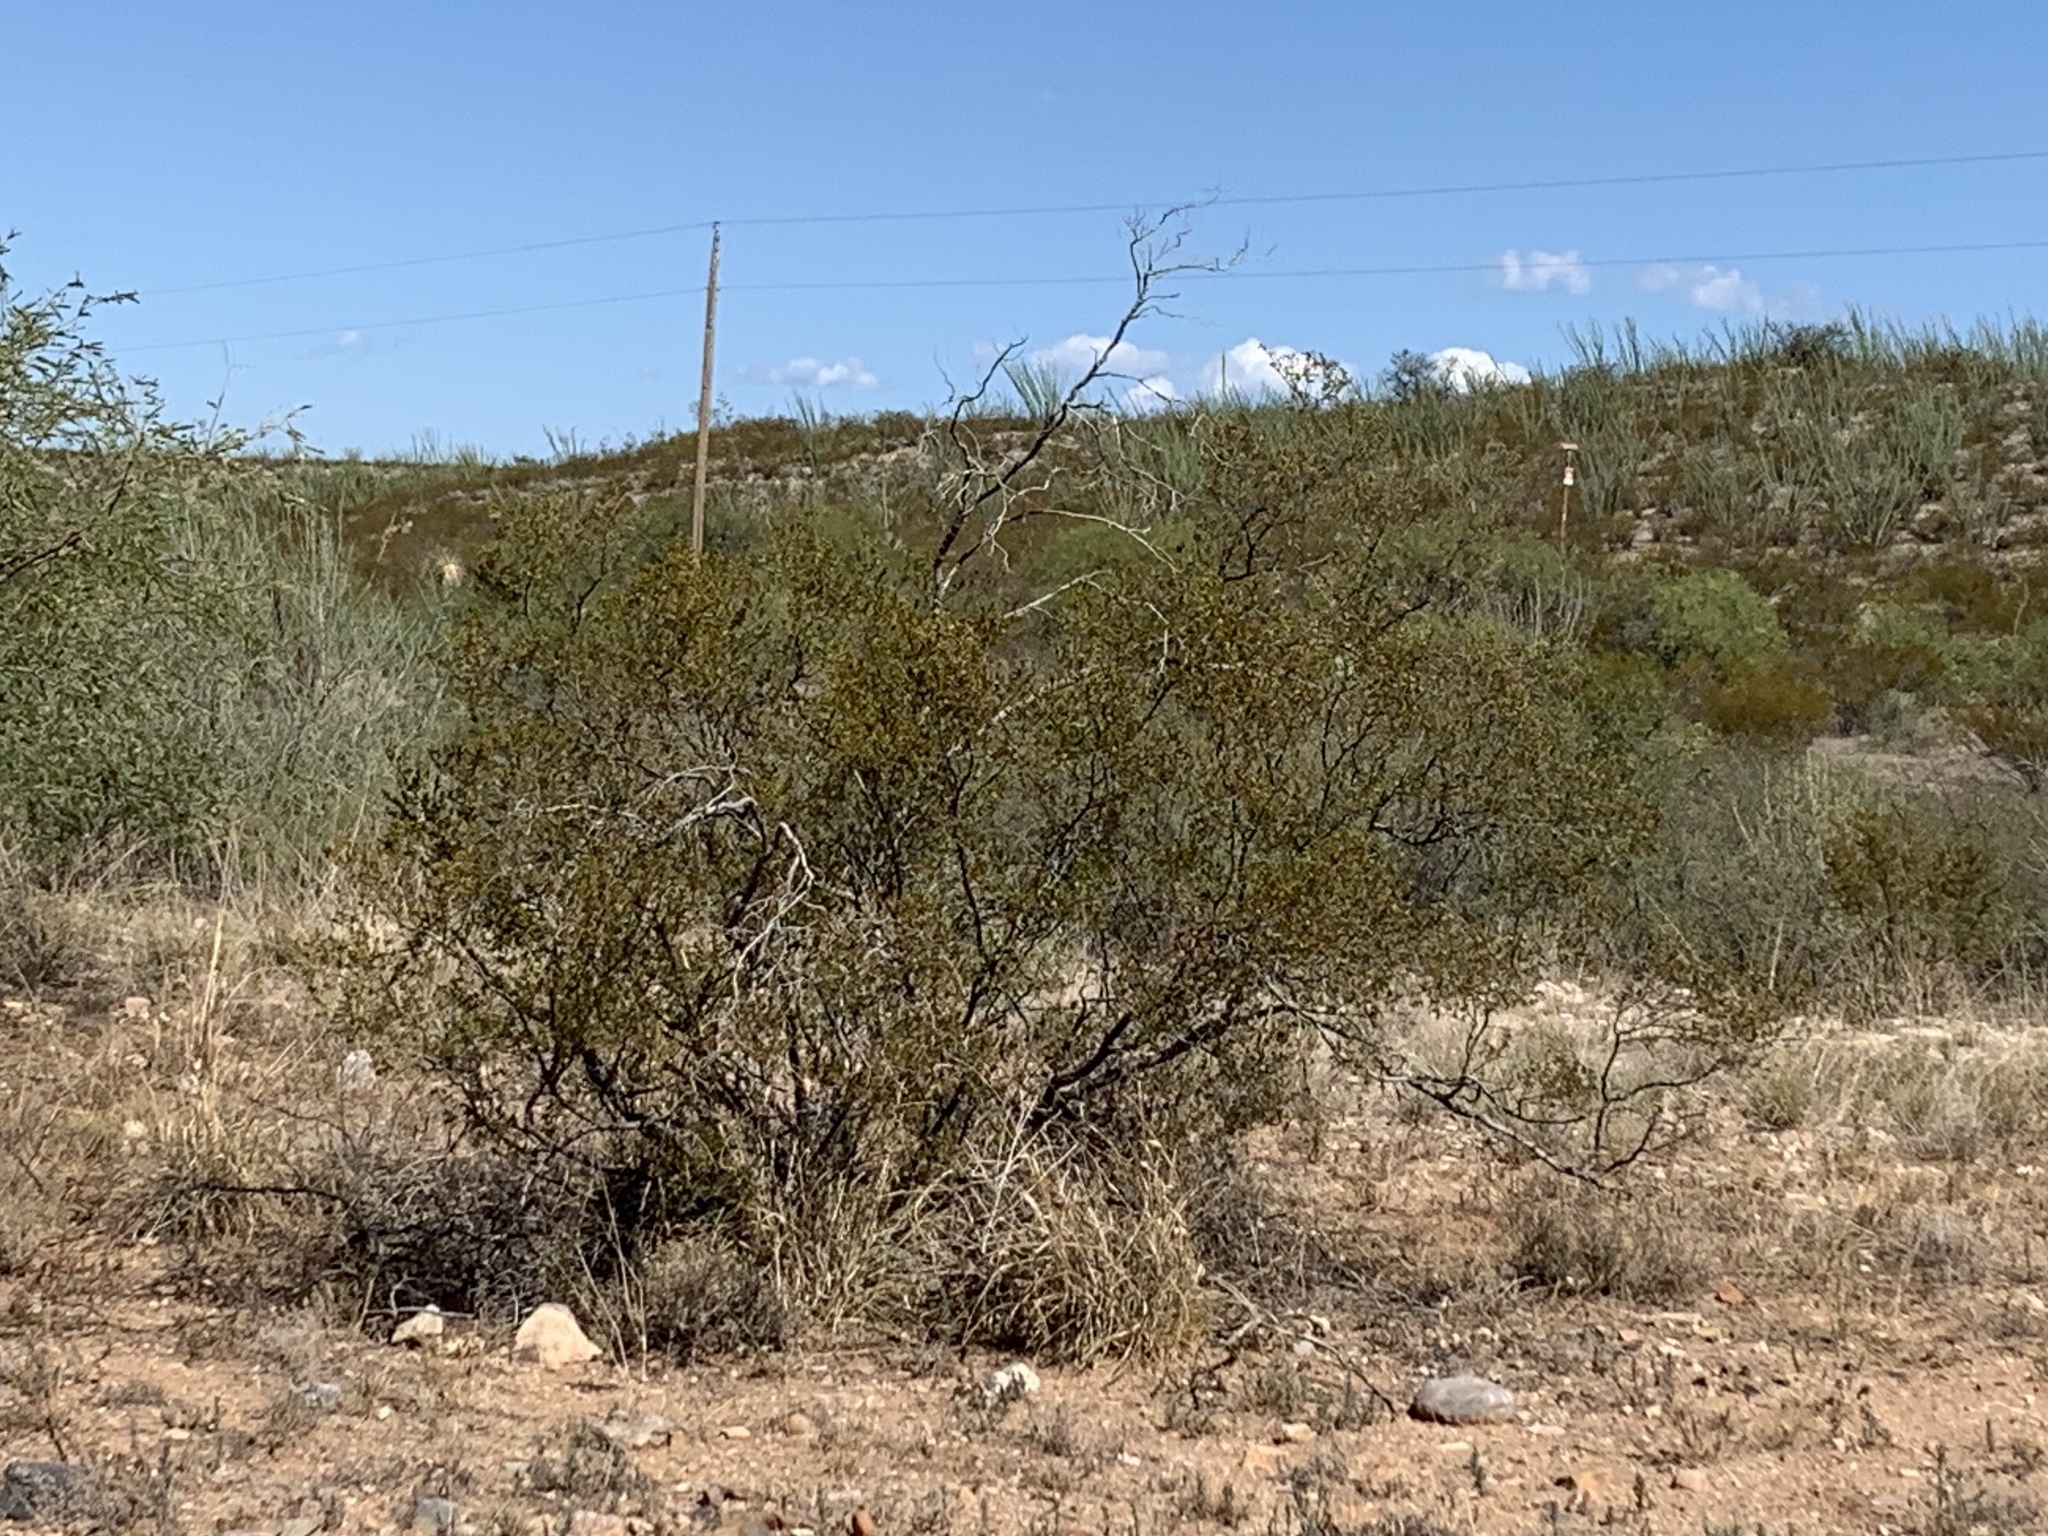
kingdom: Plantae
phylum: Tracheophyta
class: Magnoliopsida
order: Zygophyllales
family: Zygophyllaceae
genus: Larrea
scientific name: Larrea tridentata
